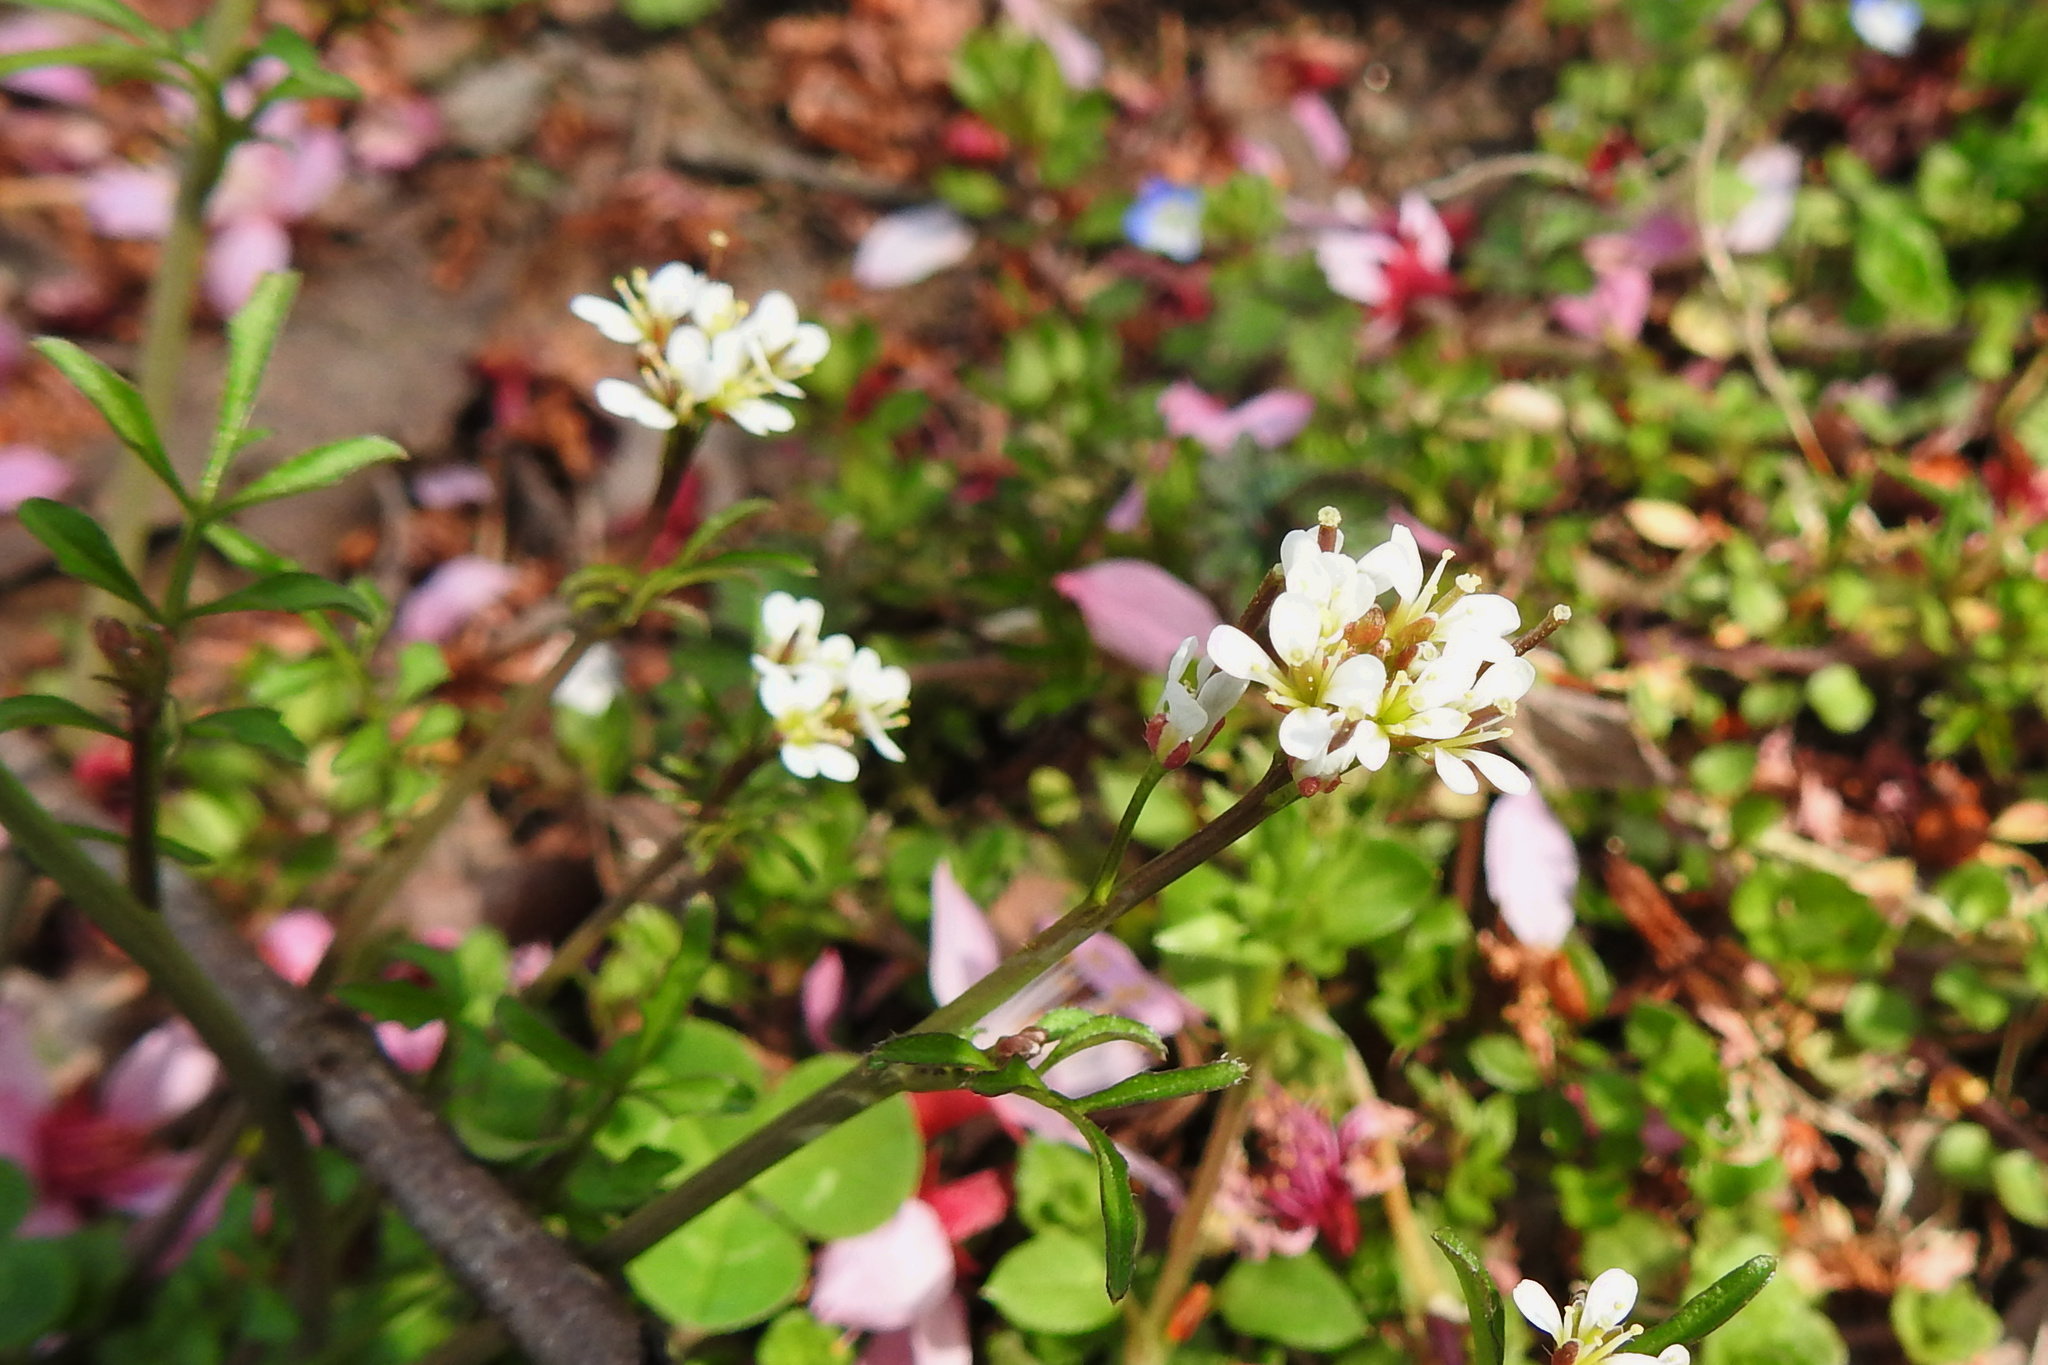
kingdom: Plantae
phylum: Tracheophyta
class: Magnoliopsida
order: Brassicales
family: Brassicaceae
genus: Cardamine
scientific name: Cardamine hirsuta
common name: Hairy bittercress
